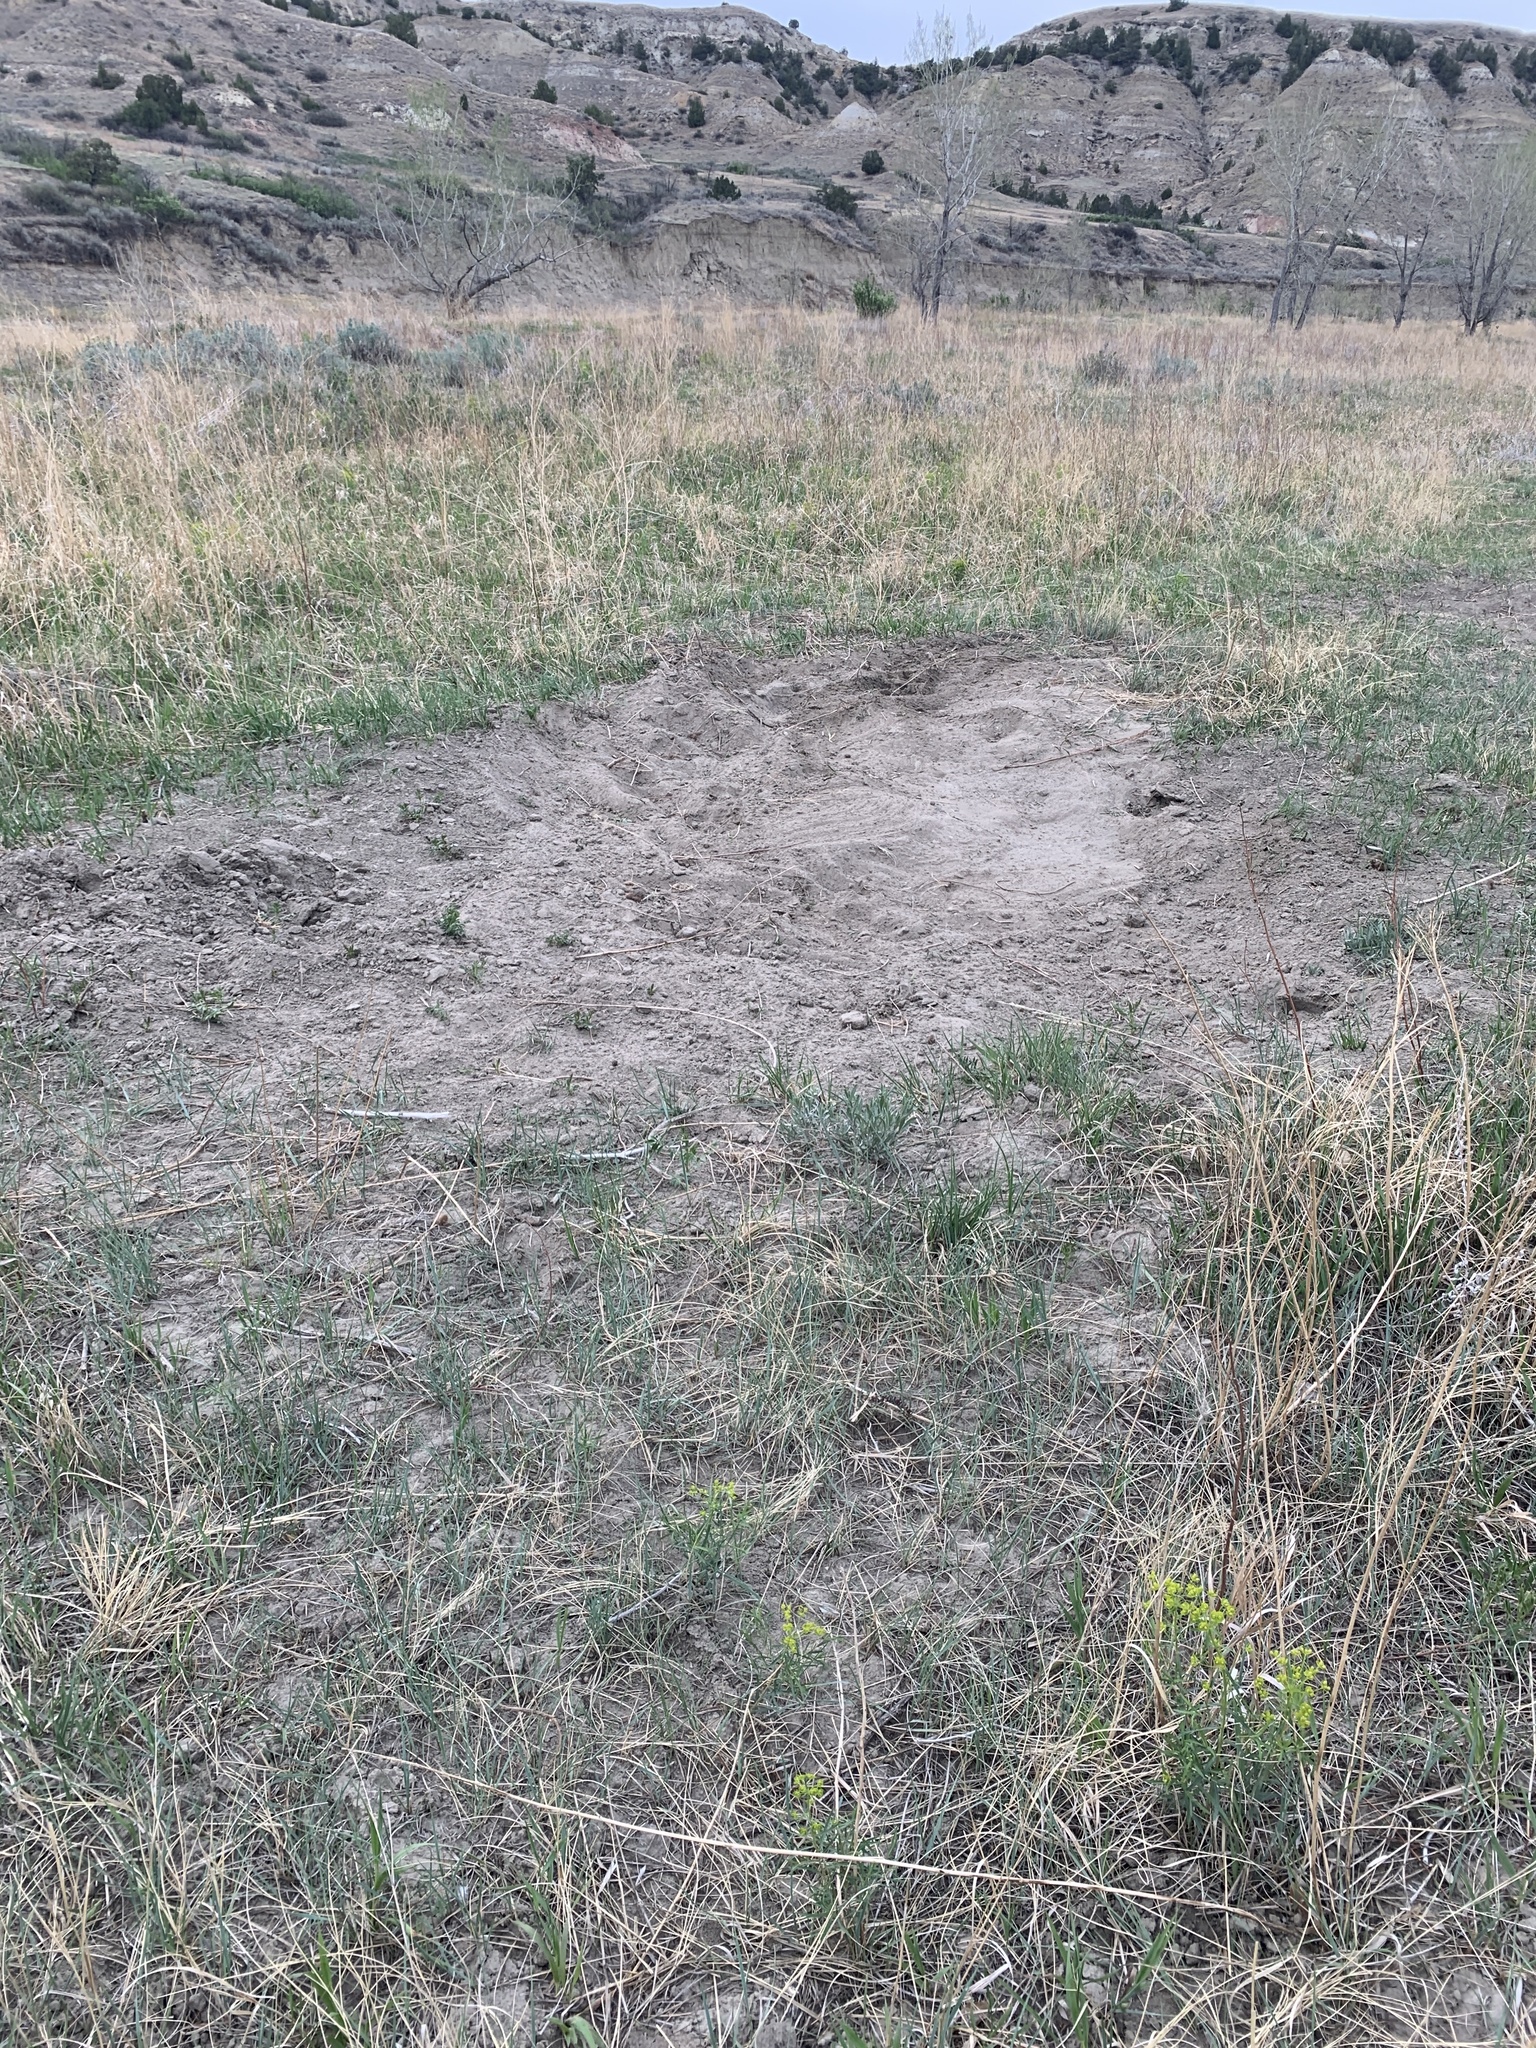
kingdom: Animalia
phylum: Chordata
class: Mammalia
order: Artiodactyla
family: Bovidae
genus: Bison
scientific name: Bison bison
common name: American bison
